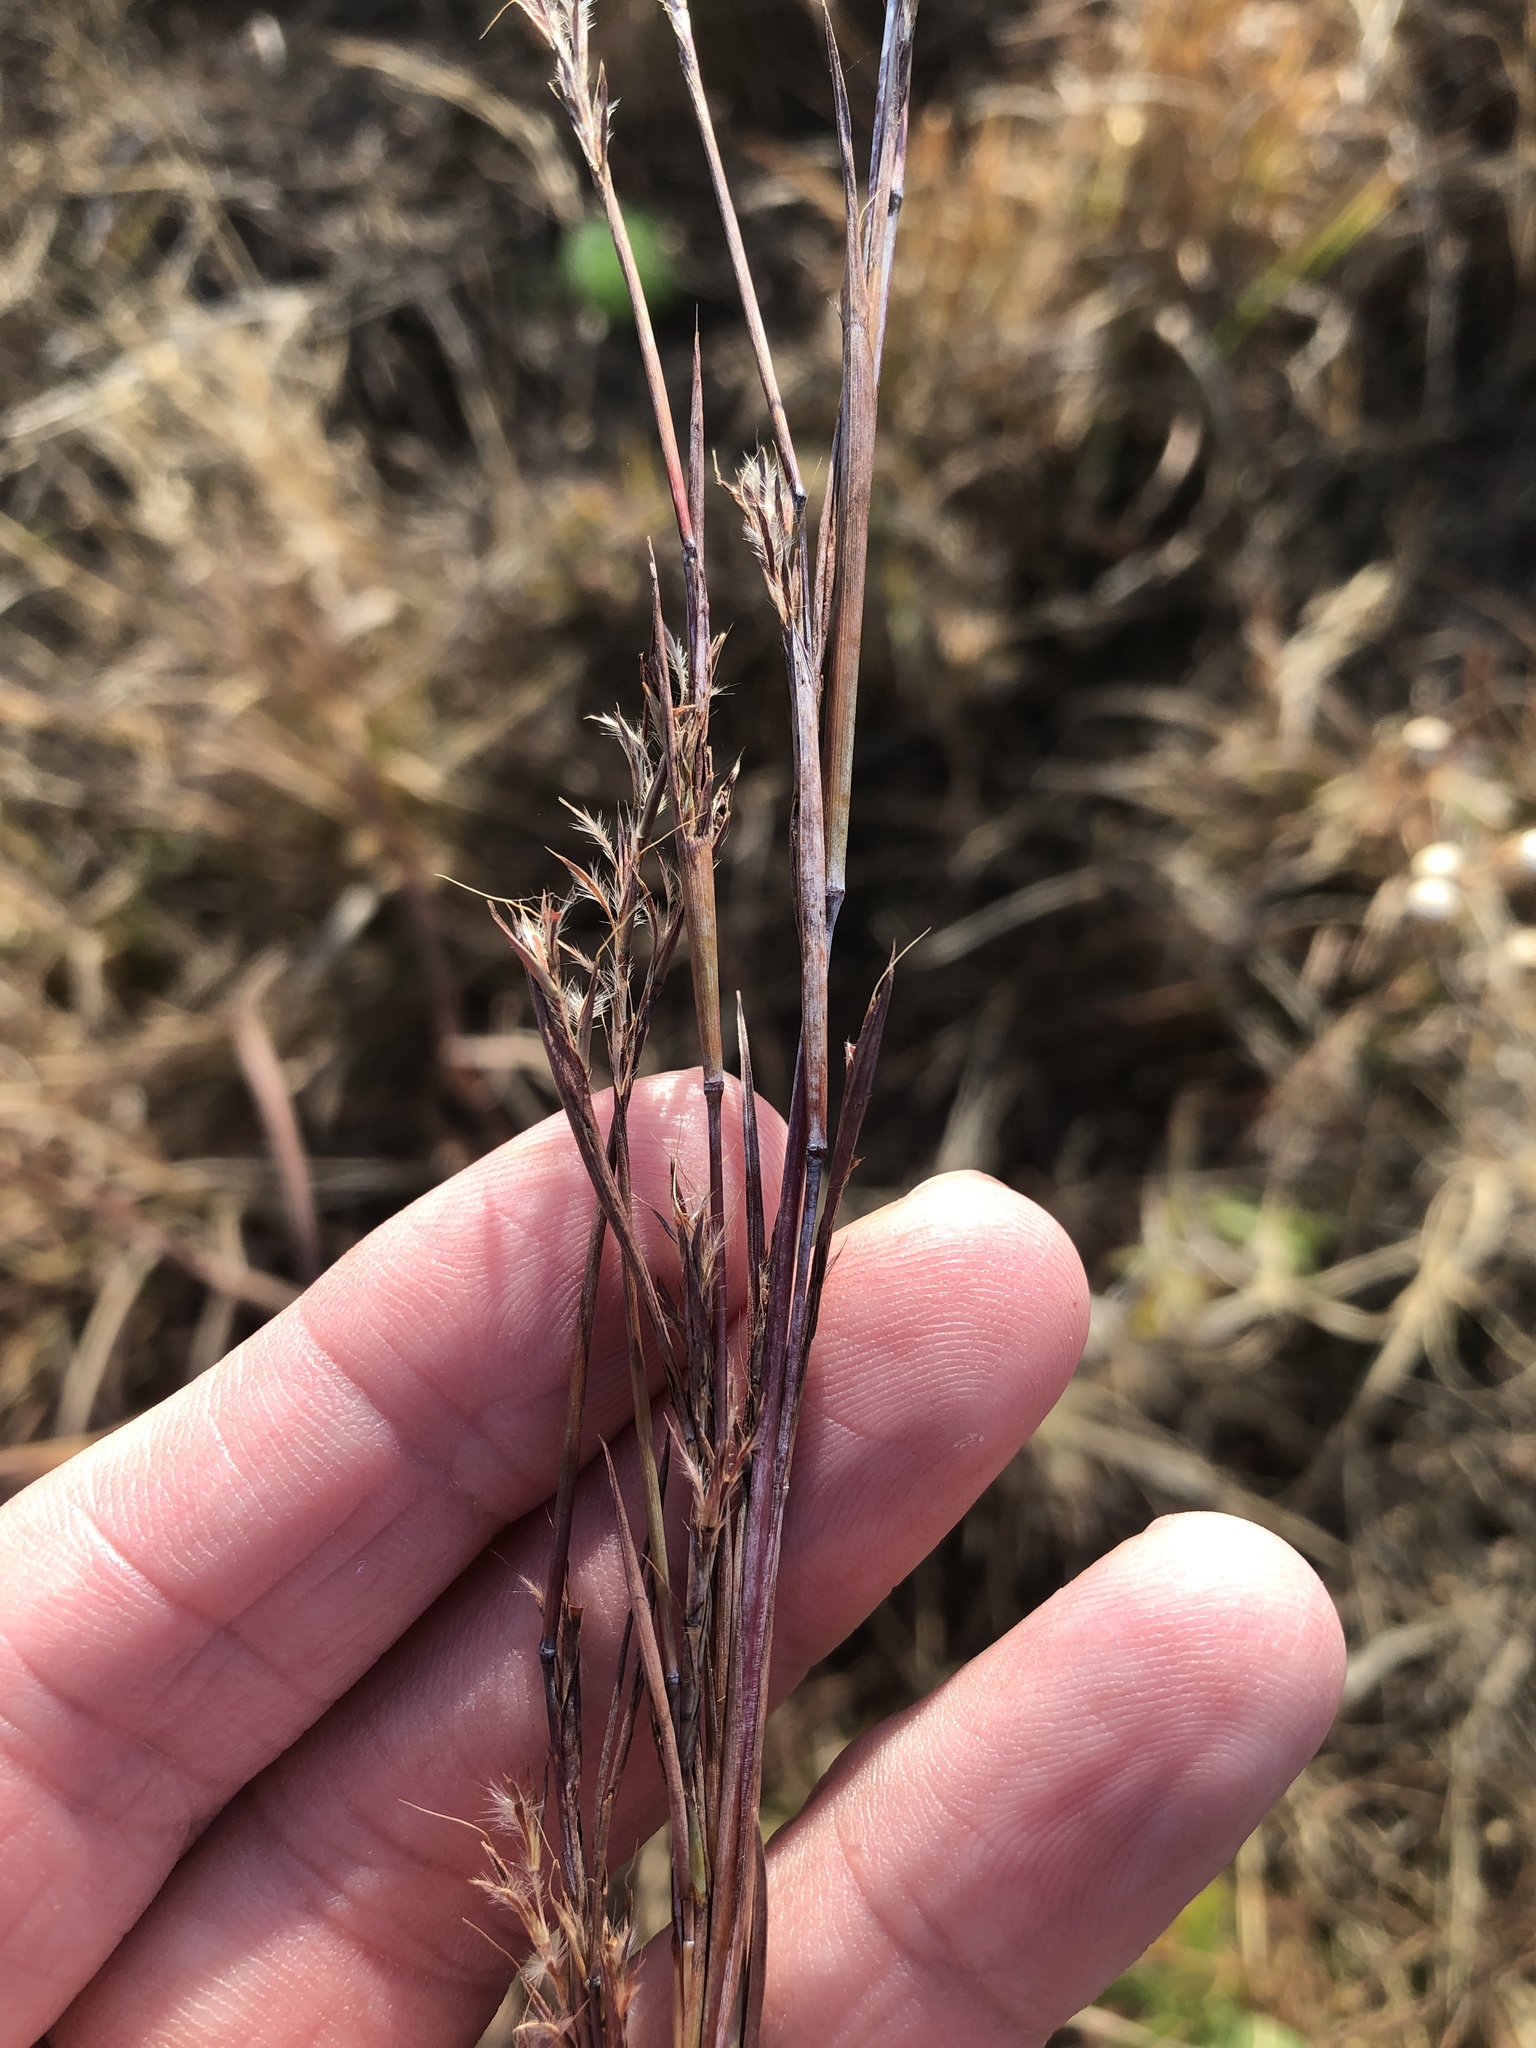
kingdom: Plantae
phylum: Tracheophyta
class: Liliopsida
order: Poales
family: Poaceae
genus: Schizachyrium
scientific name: Schizachyrium scoparium
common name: Little bluestem
